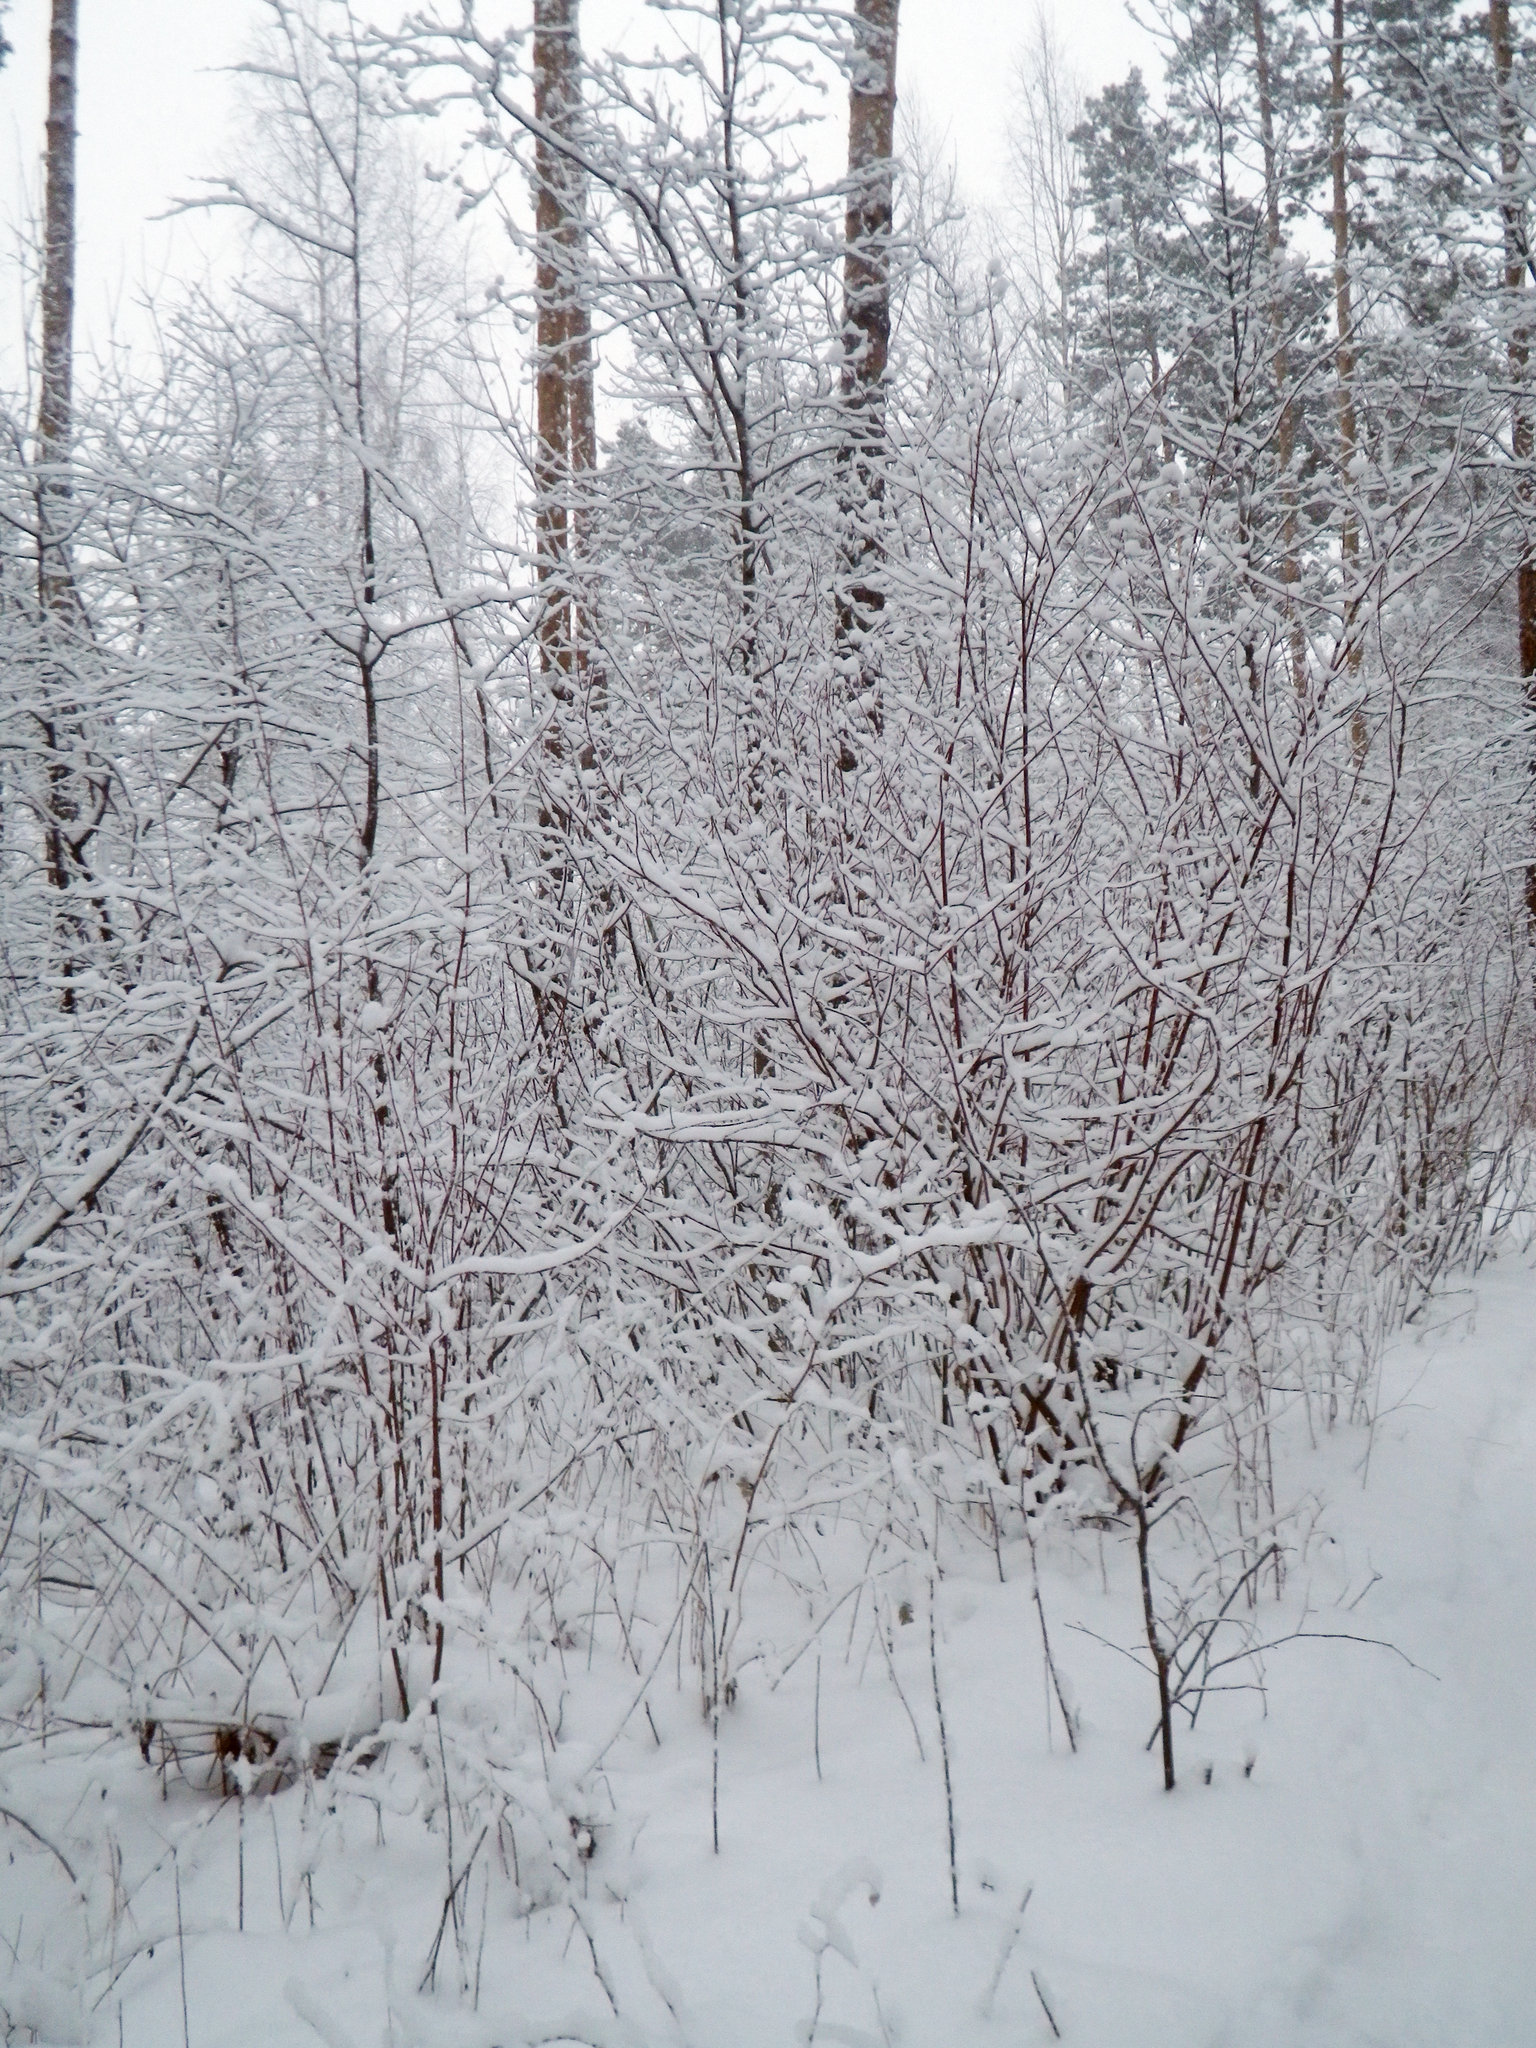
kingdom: Plantae
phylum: Tracheophyta
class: Magnoliopsida
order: Cornales
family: Cornaceae
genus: Cornus
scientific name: Cornus alba
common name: White dogwood
